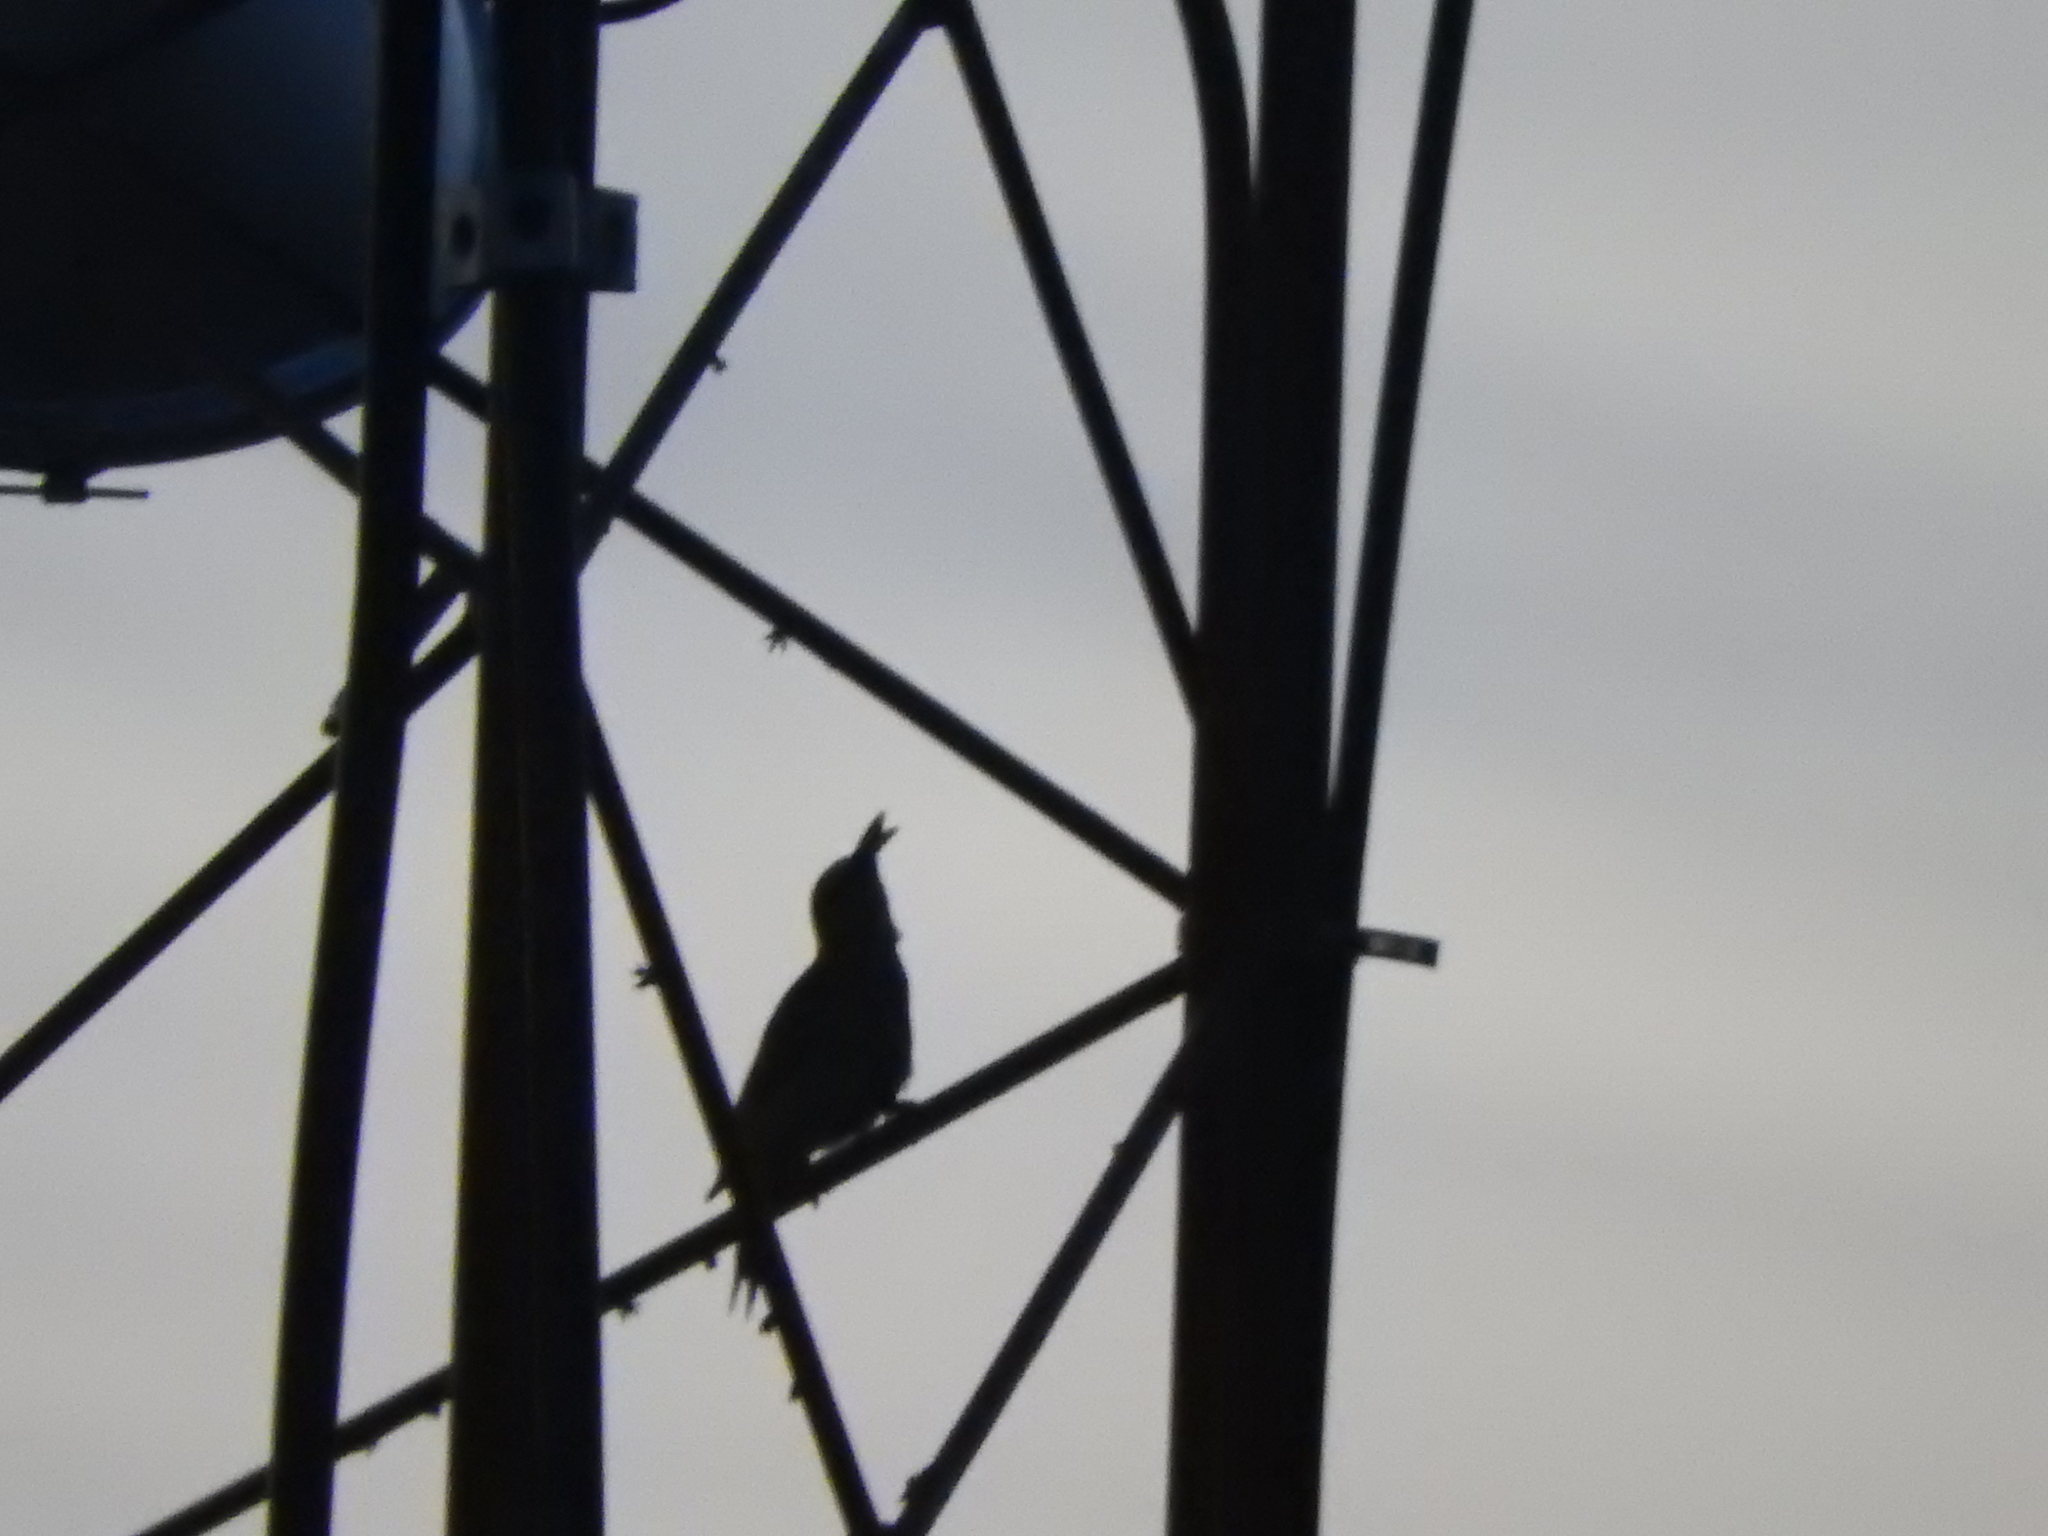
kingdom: Animalia
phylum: Chordata
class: Aves
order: Piciformes
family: Picidae
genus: Melanerpes
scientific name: Melanerpes aurifrons
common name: Golden-fronted woodpecker
